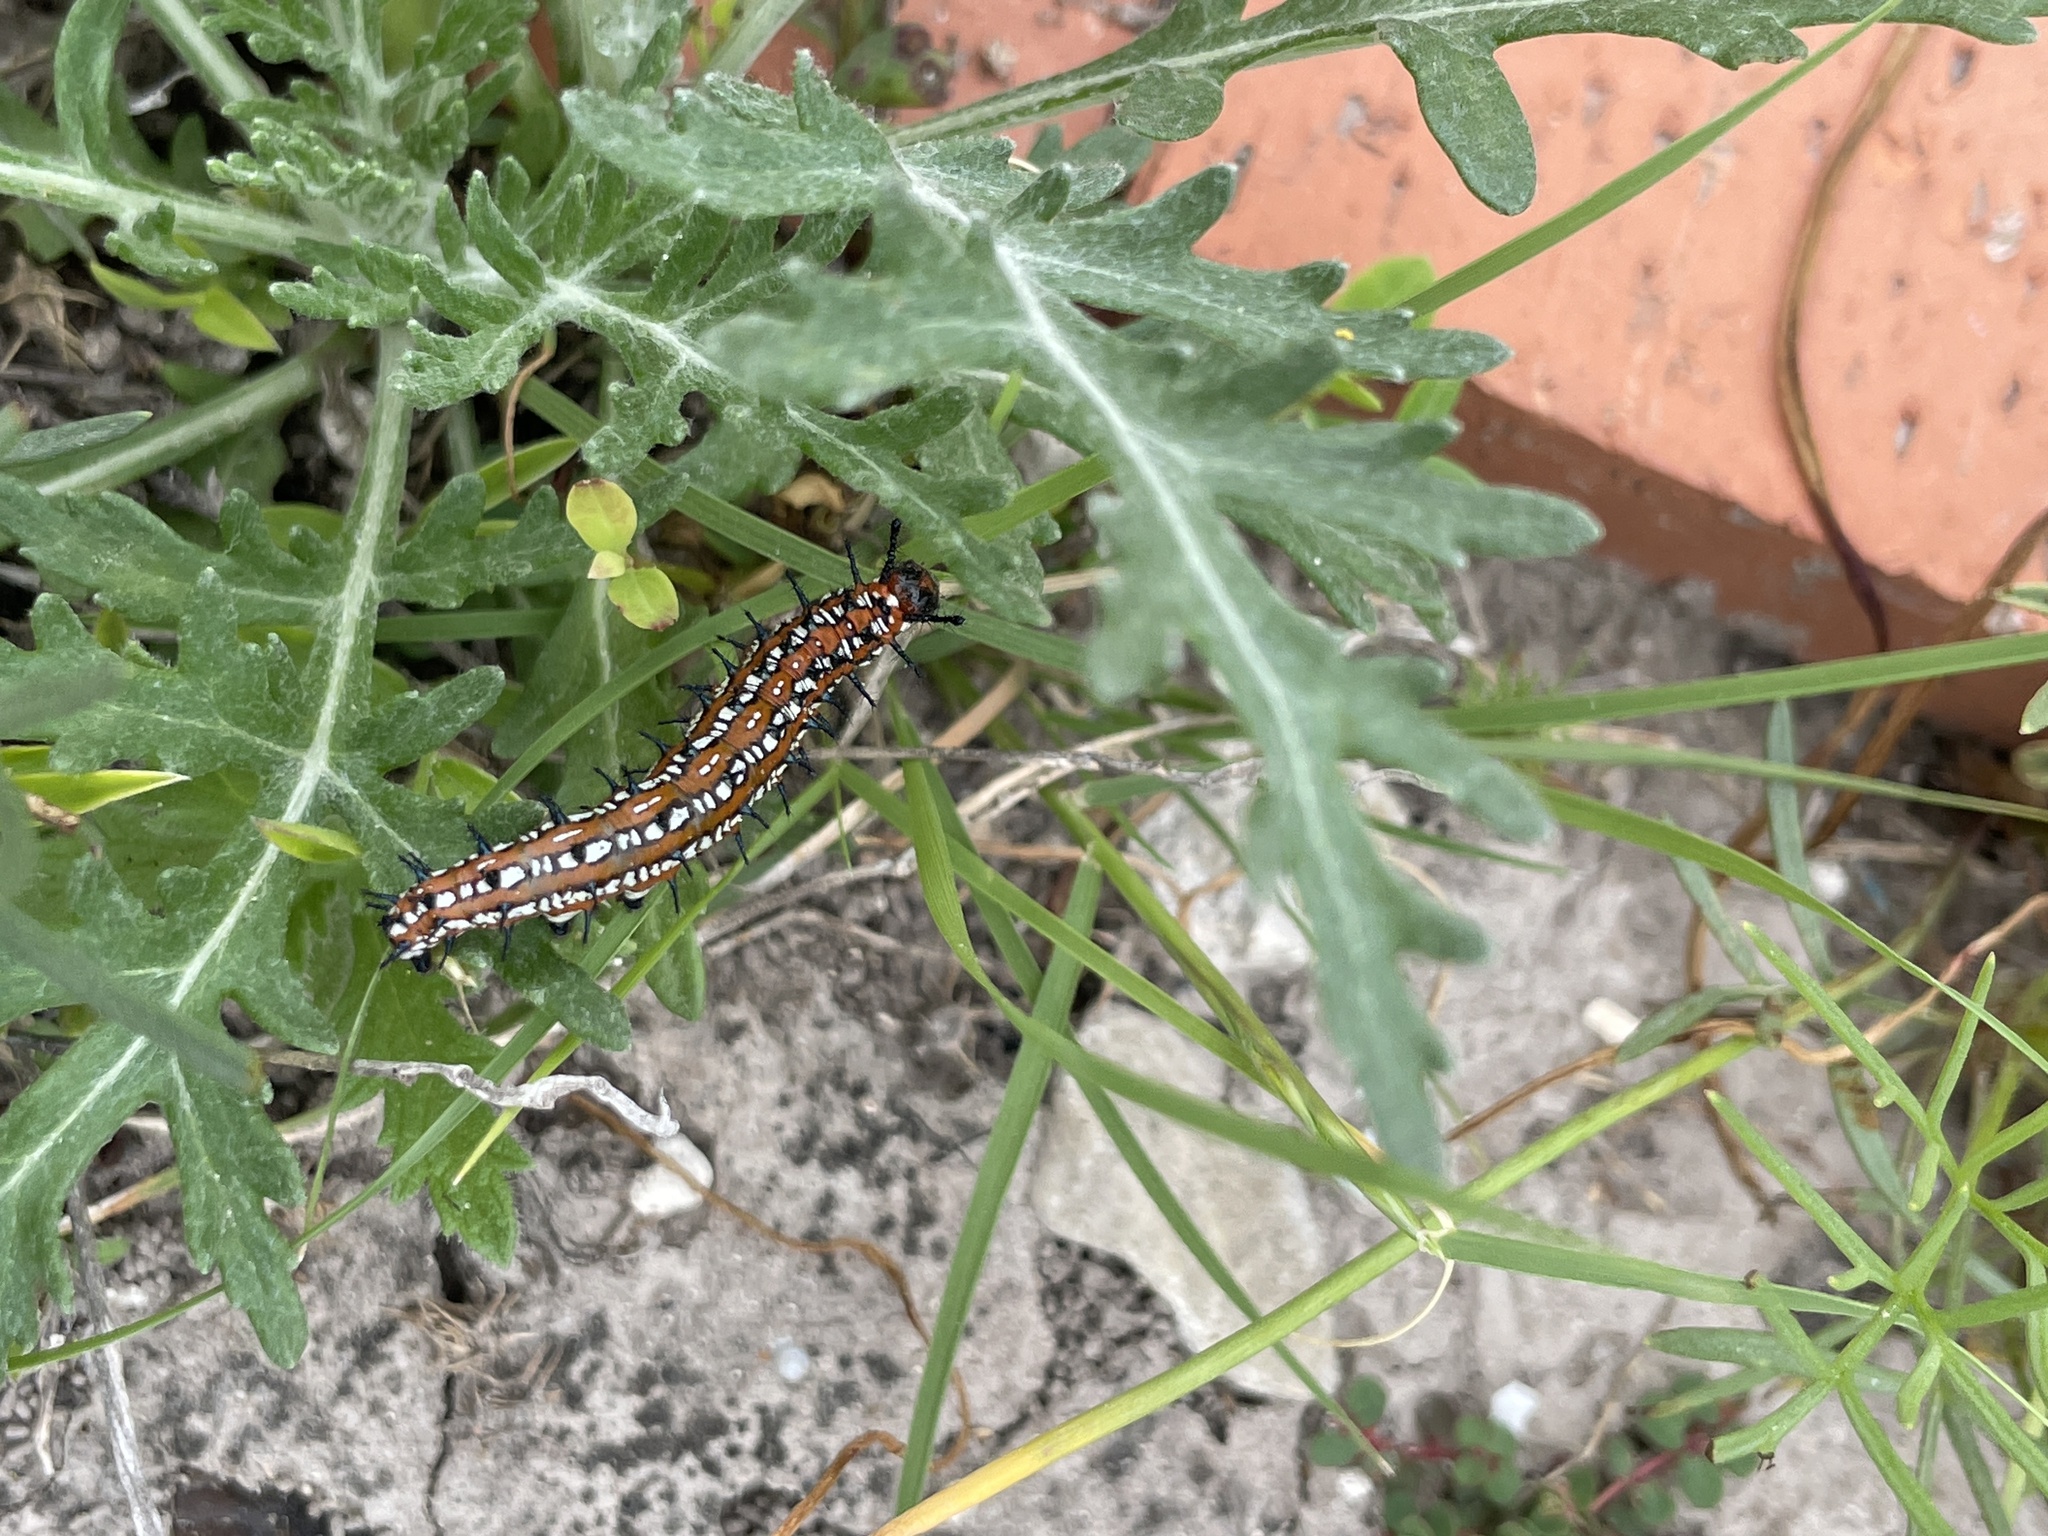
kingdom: Animalia
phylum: Arthropoda
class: Insecta
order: Lepidoptera
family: Nymphalidae
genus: Euptoieta
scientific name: Euptoieta claudia
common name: Variegated fritillary
